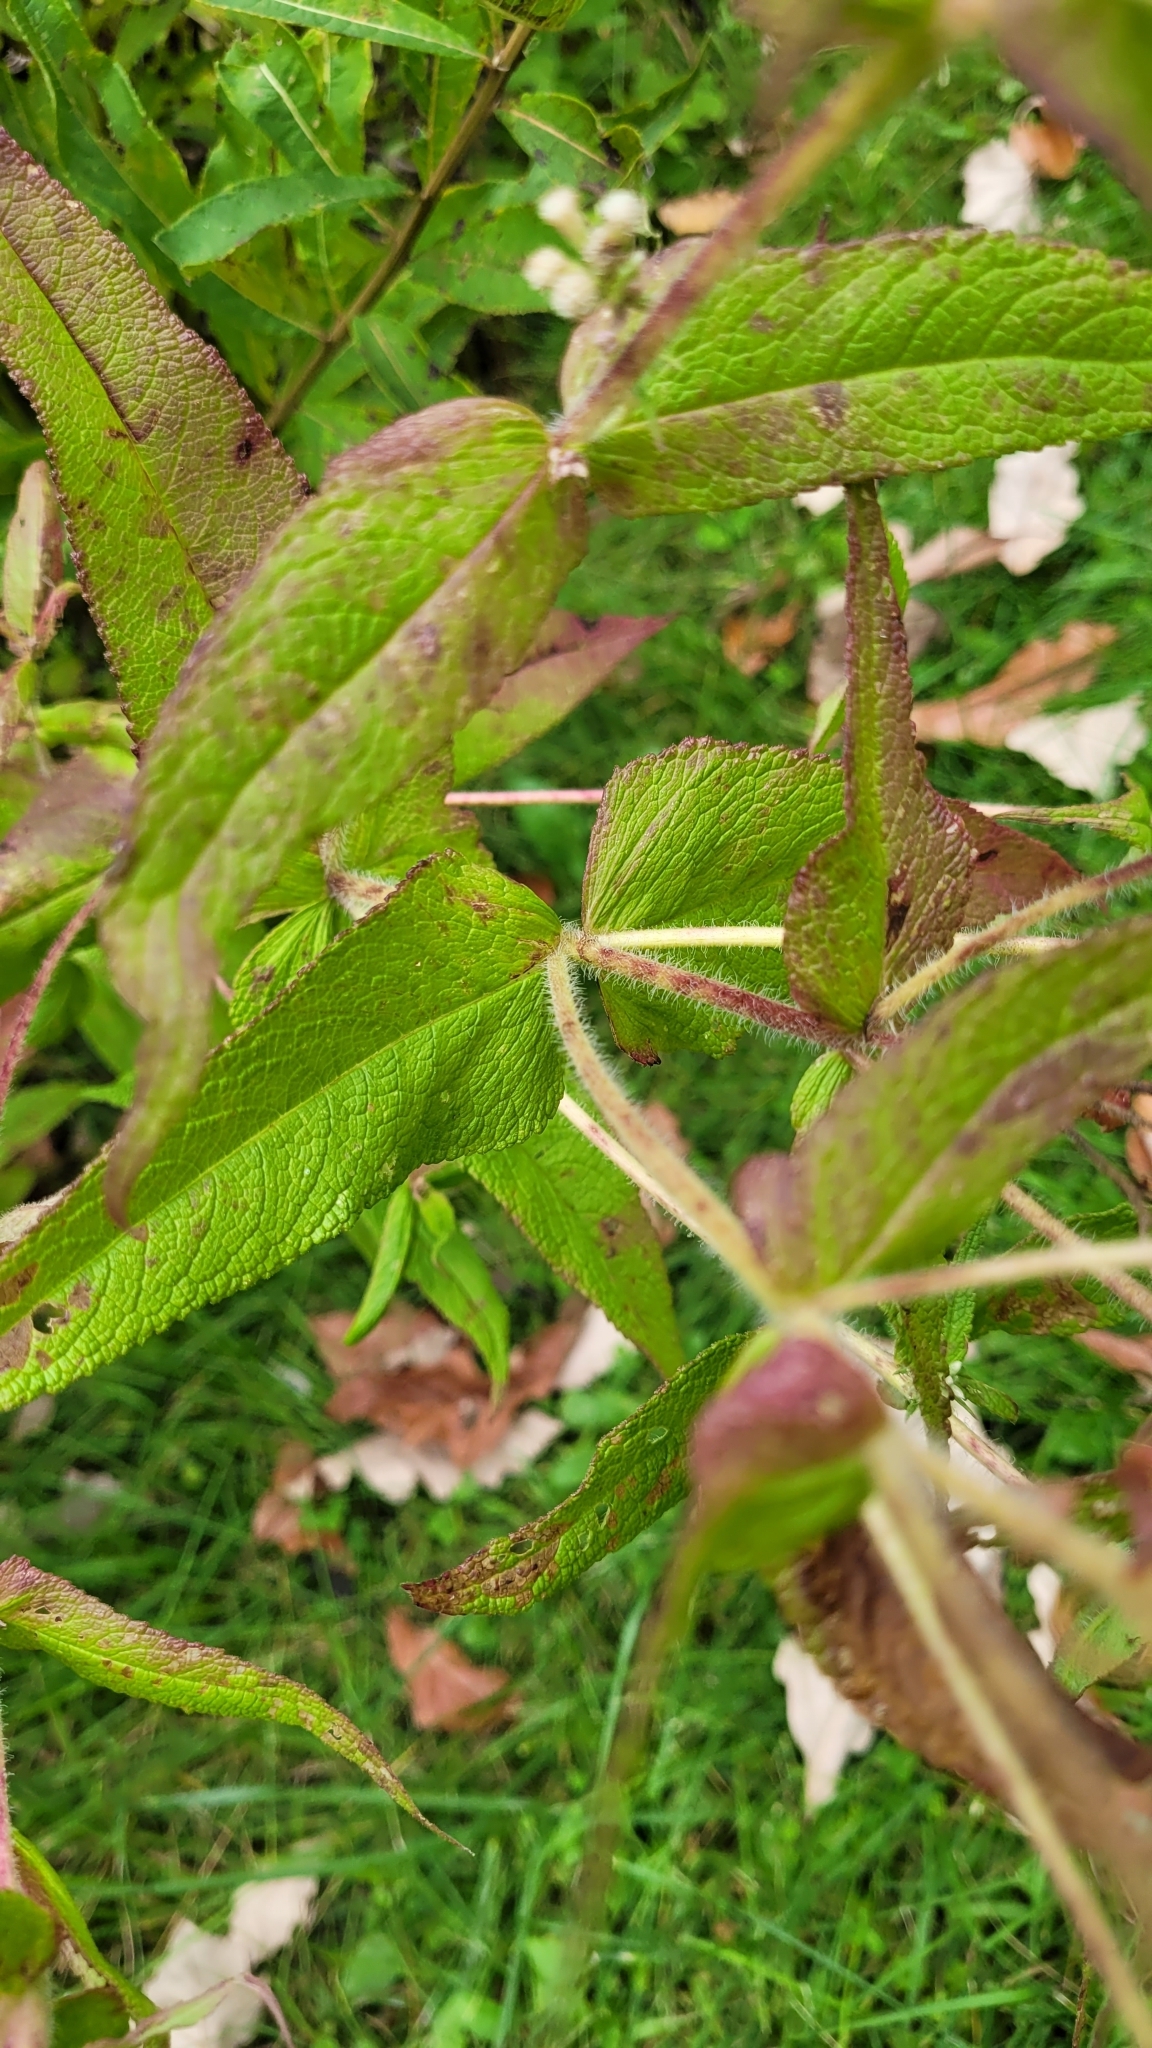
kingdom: Plantae
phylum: Tracheophyta
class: Magnoliopsida
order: Asterales
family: Asteraceae
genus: Eupatorium
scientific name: Eupatorium perfoliatum
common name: Boneset
